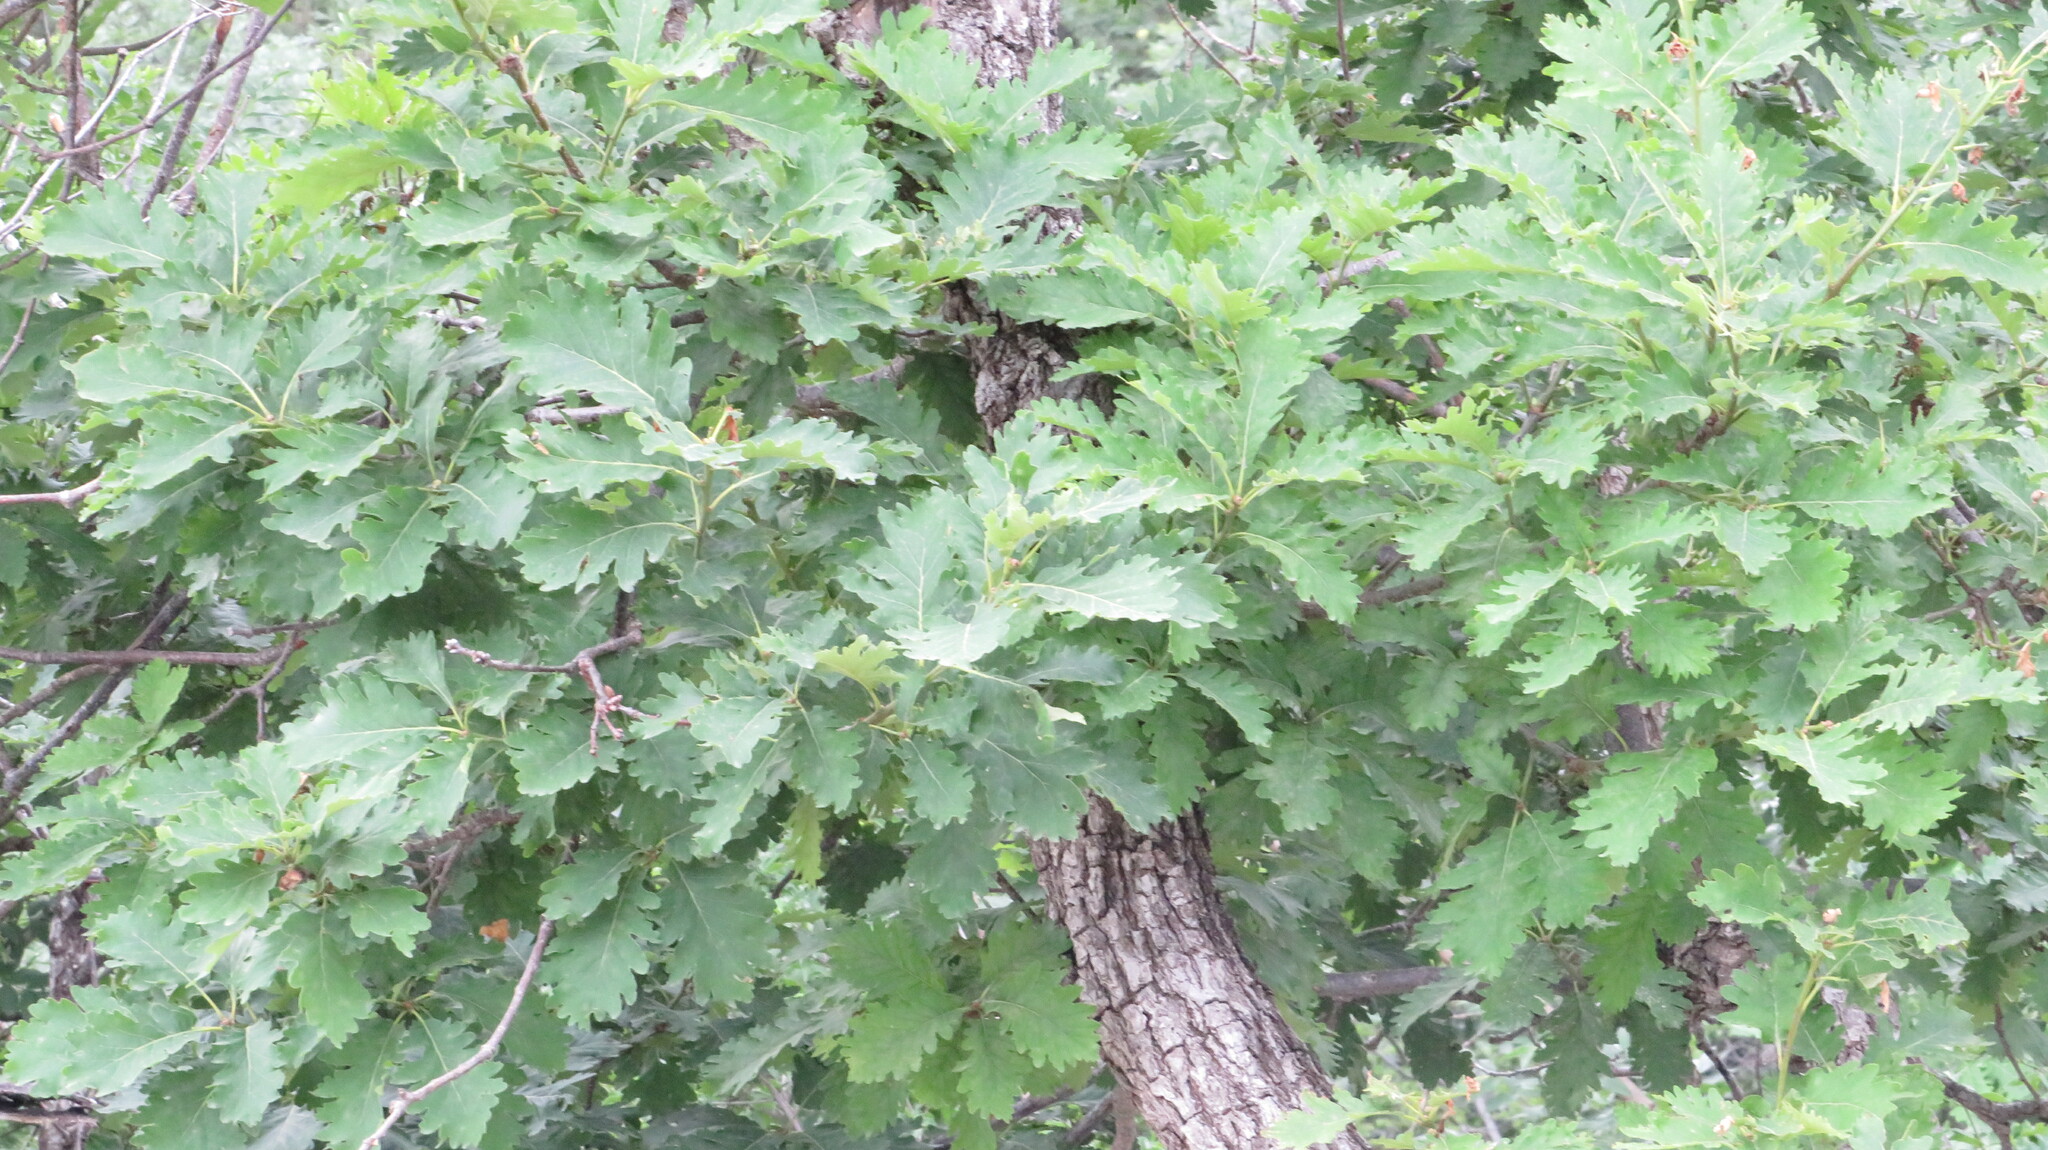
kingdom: Plantae
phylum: Tracheophyta
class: Magnoliopsida
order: Fagales
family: Fagaceae
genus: Quercus
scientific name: Quercus macranthera
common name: Caucasian oak
